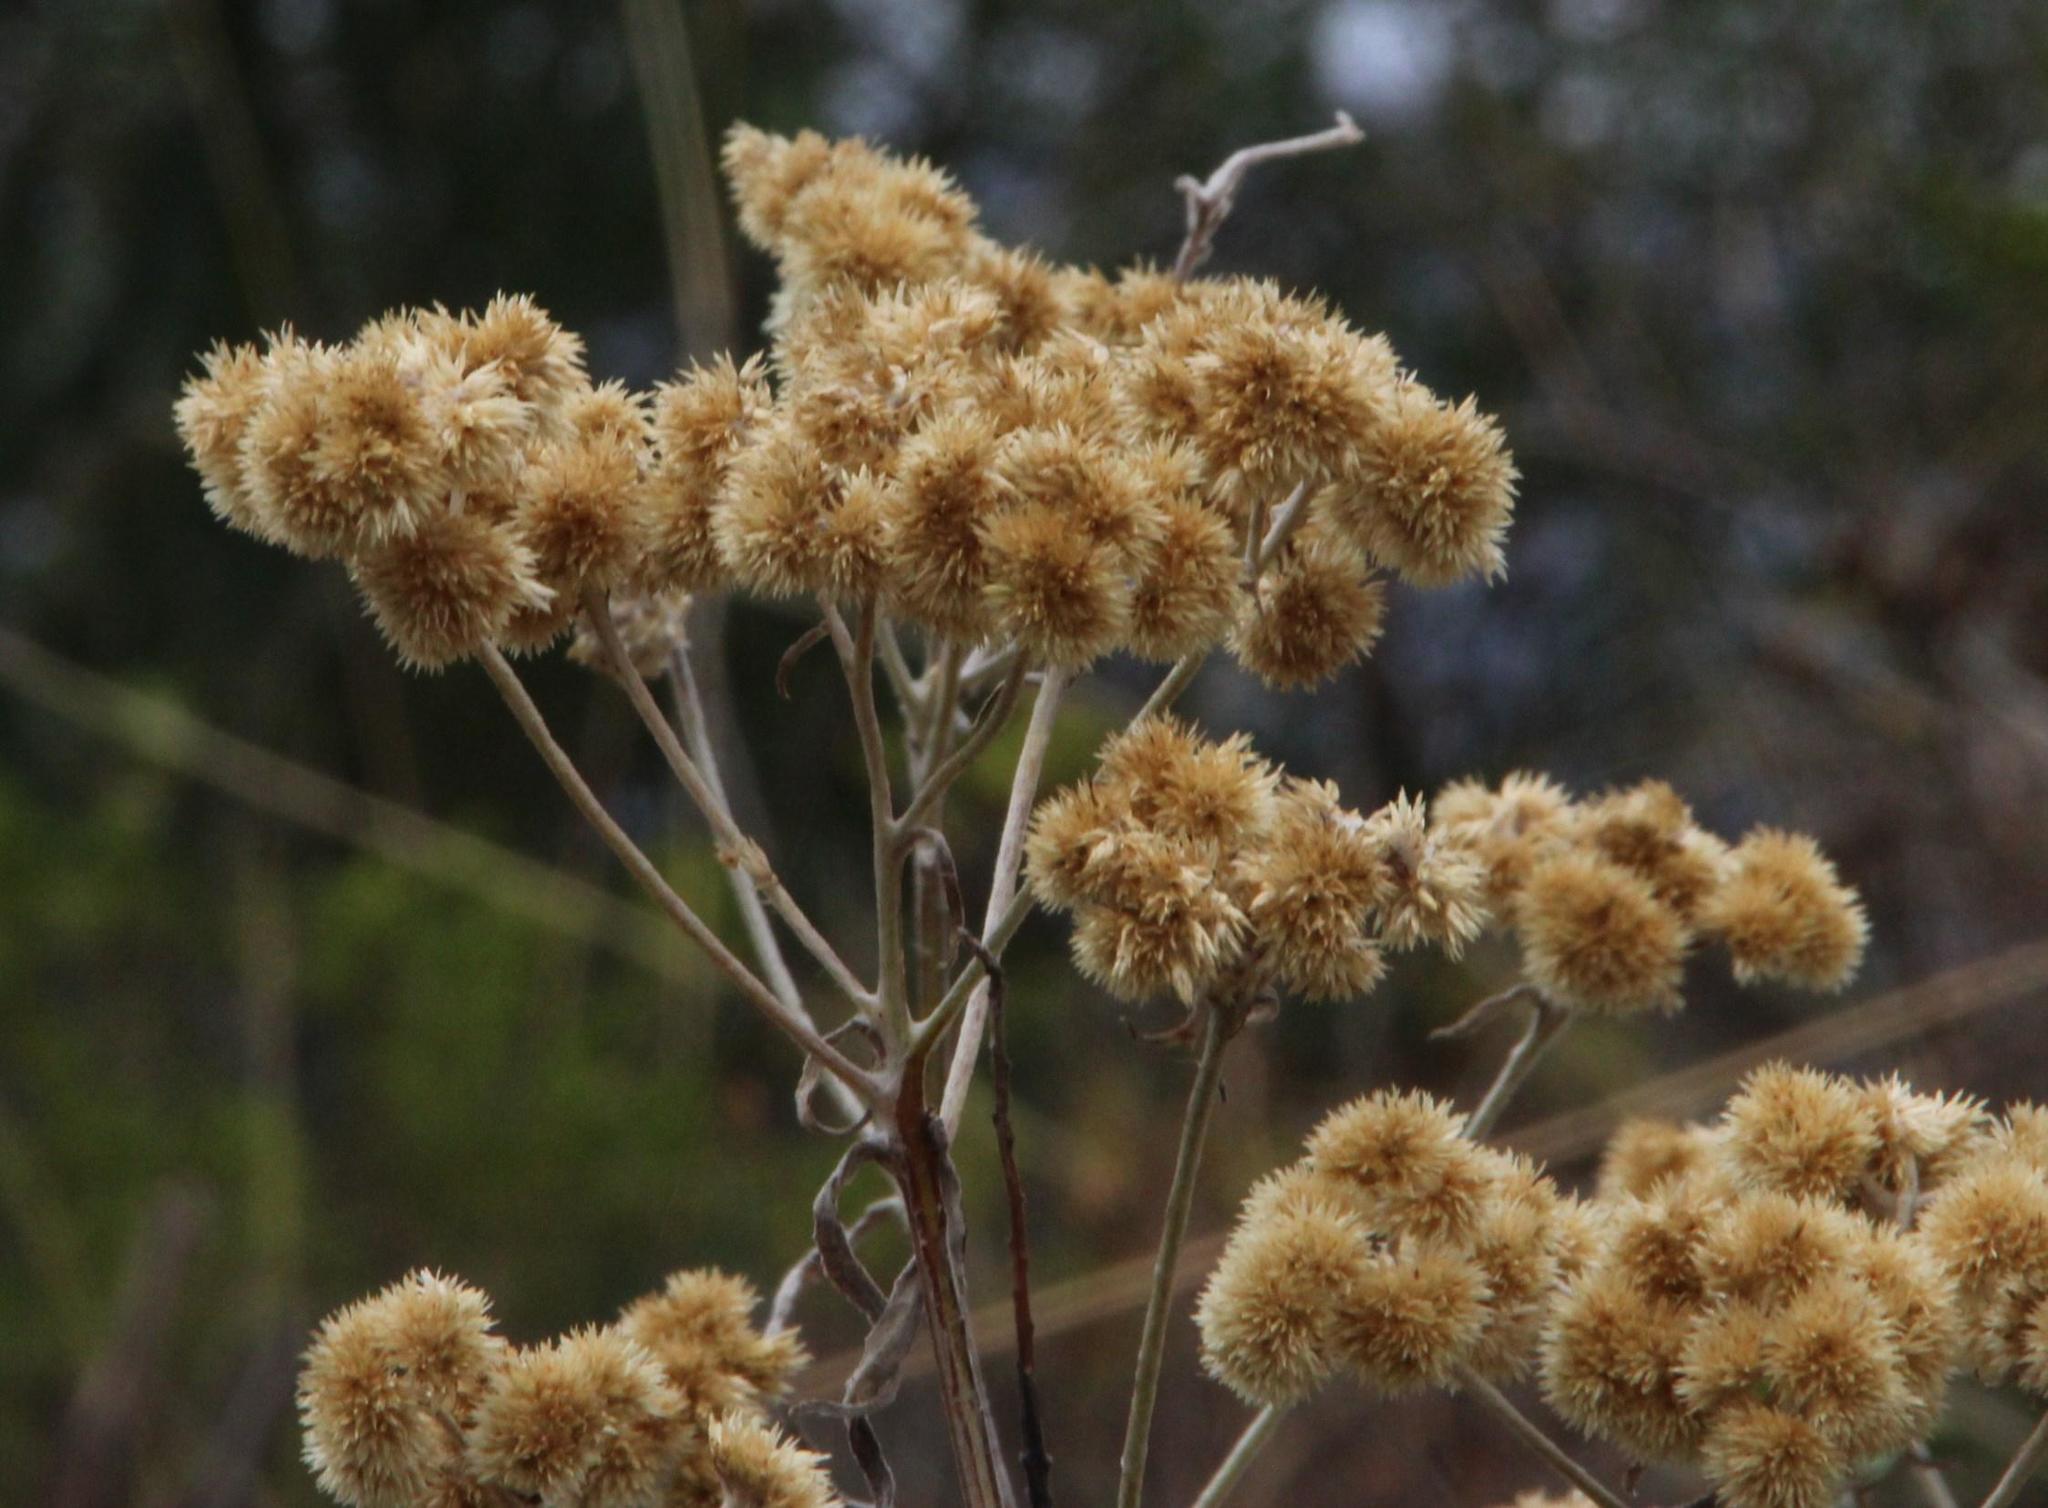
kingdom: Plantae
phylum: Tracheophyta
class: Magnoliopsida
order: Asterales
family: Asteraceae
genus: Achyrocline
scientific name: Achyrocline satureioides
